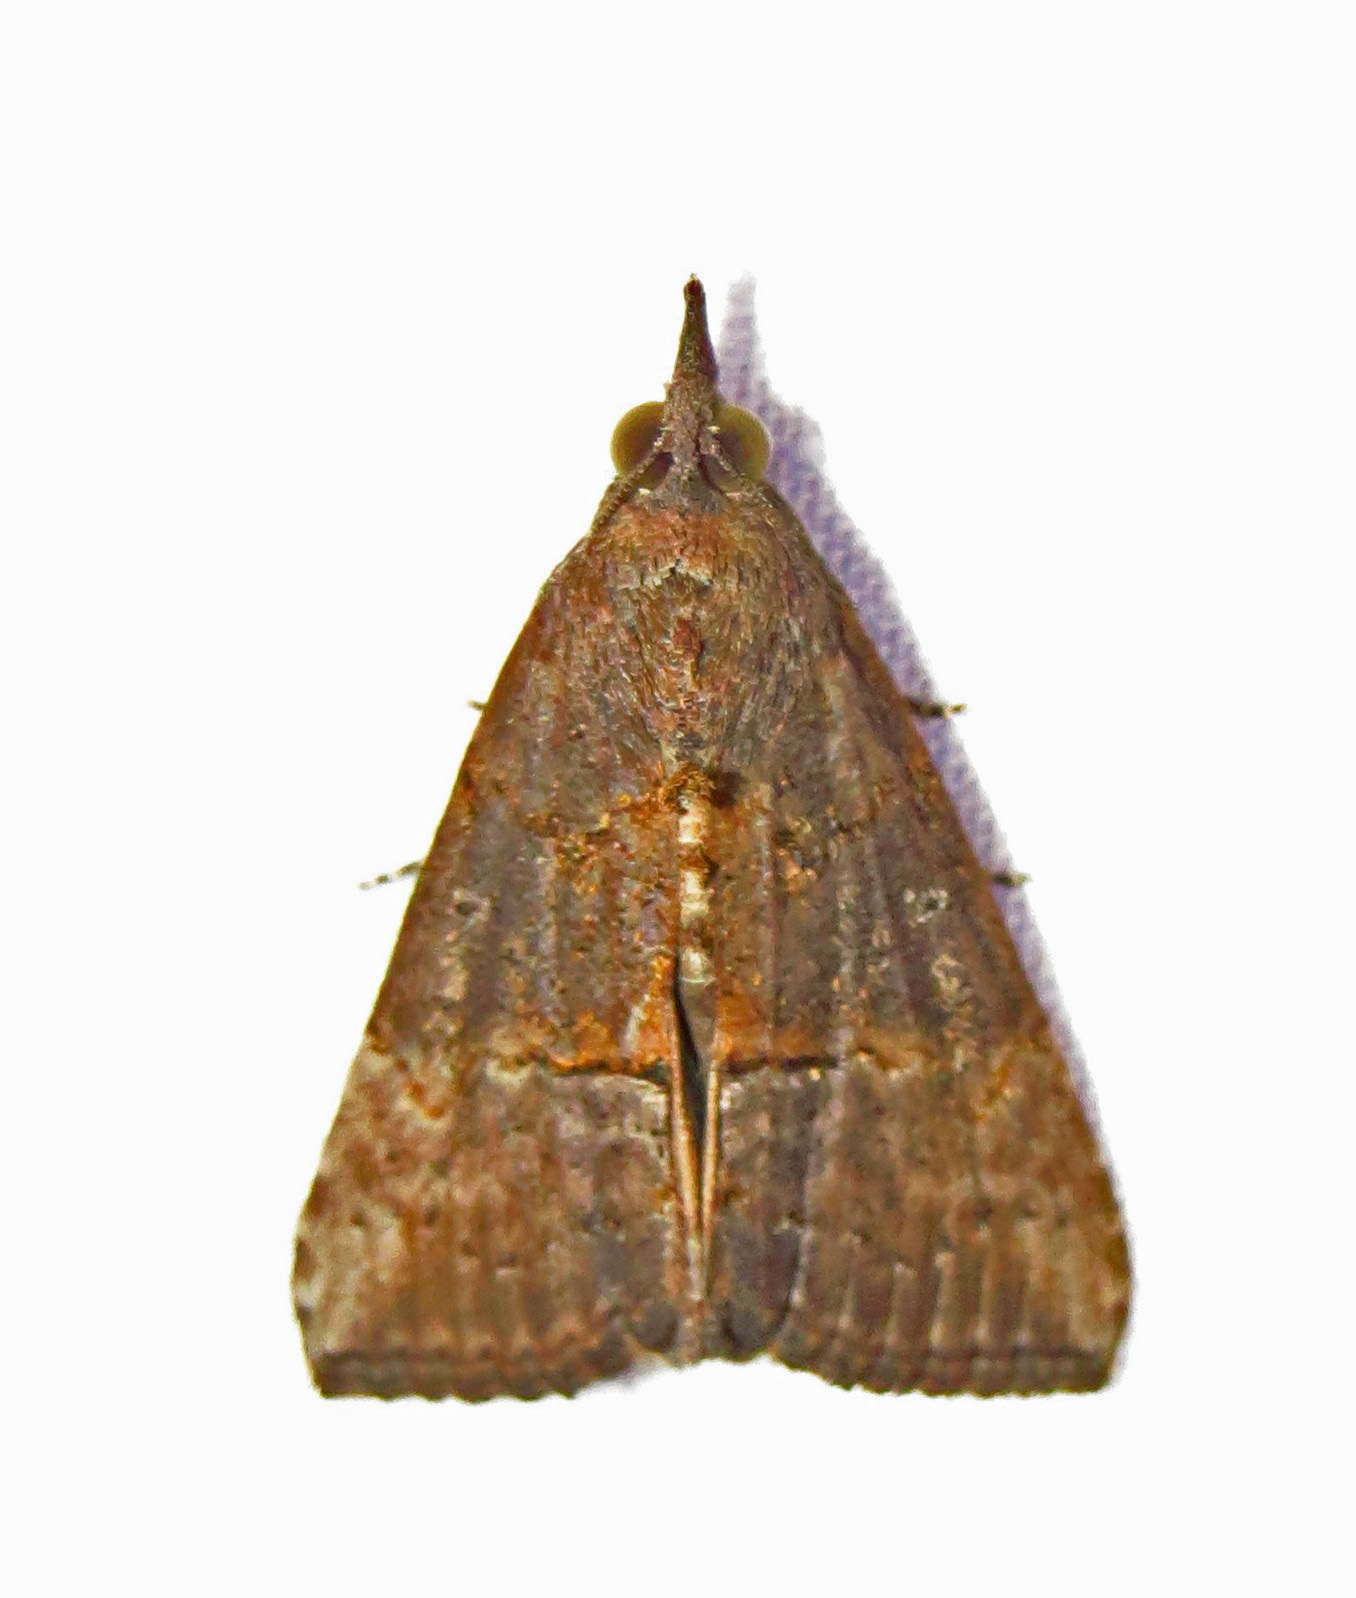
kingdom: Animalia
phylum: Arthropoda
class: Insecta
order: Lepidoptera
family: Erebidae
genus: Hypena
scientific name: Hypena scabra
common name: Green cloverworm
